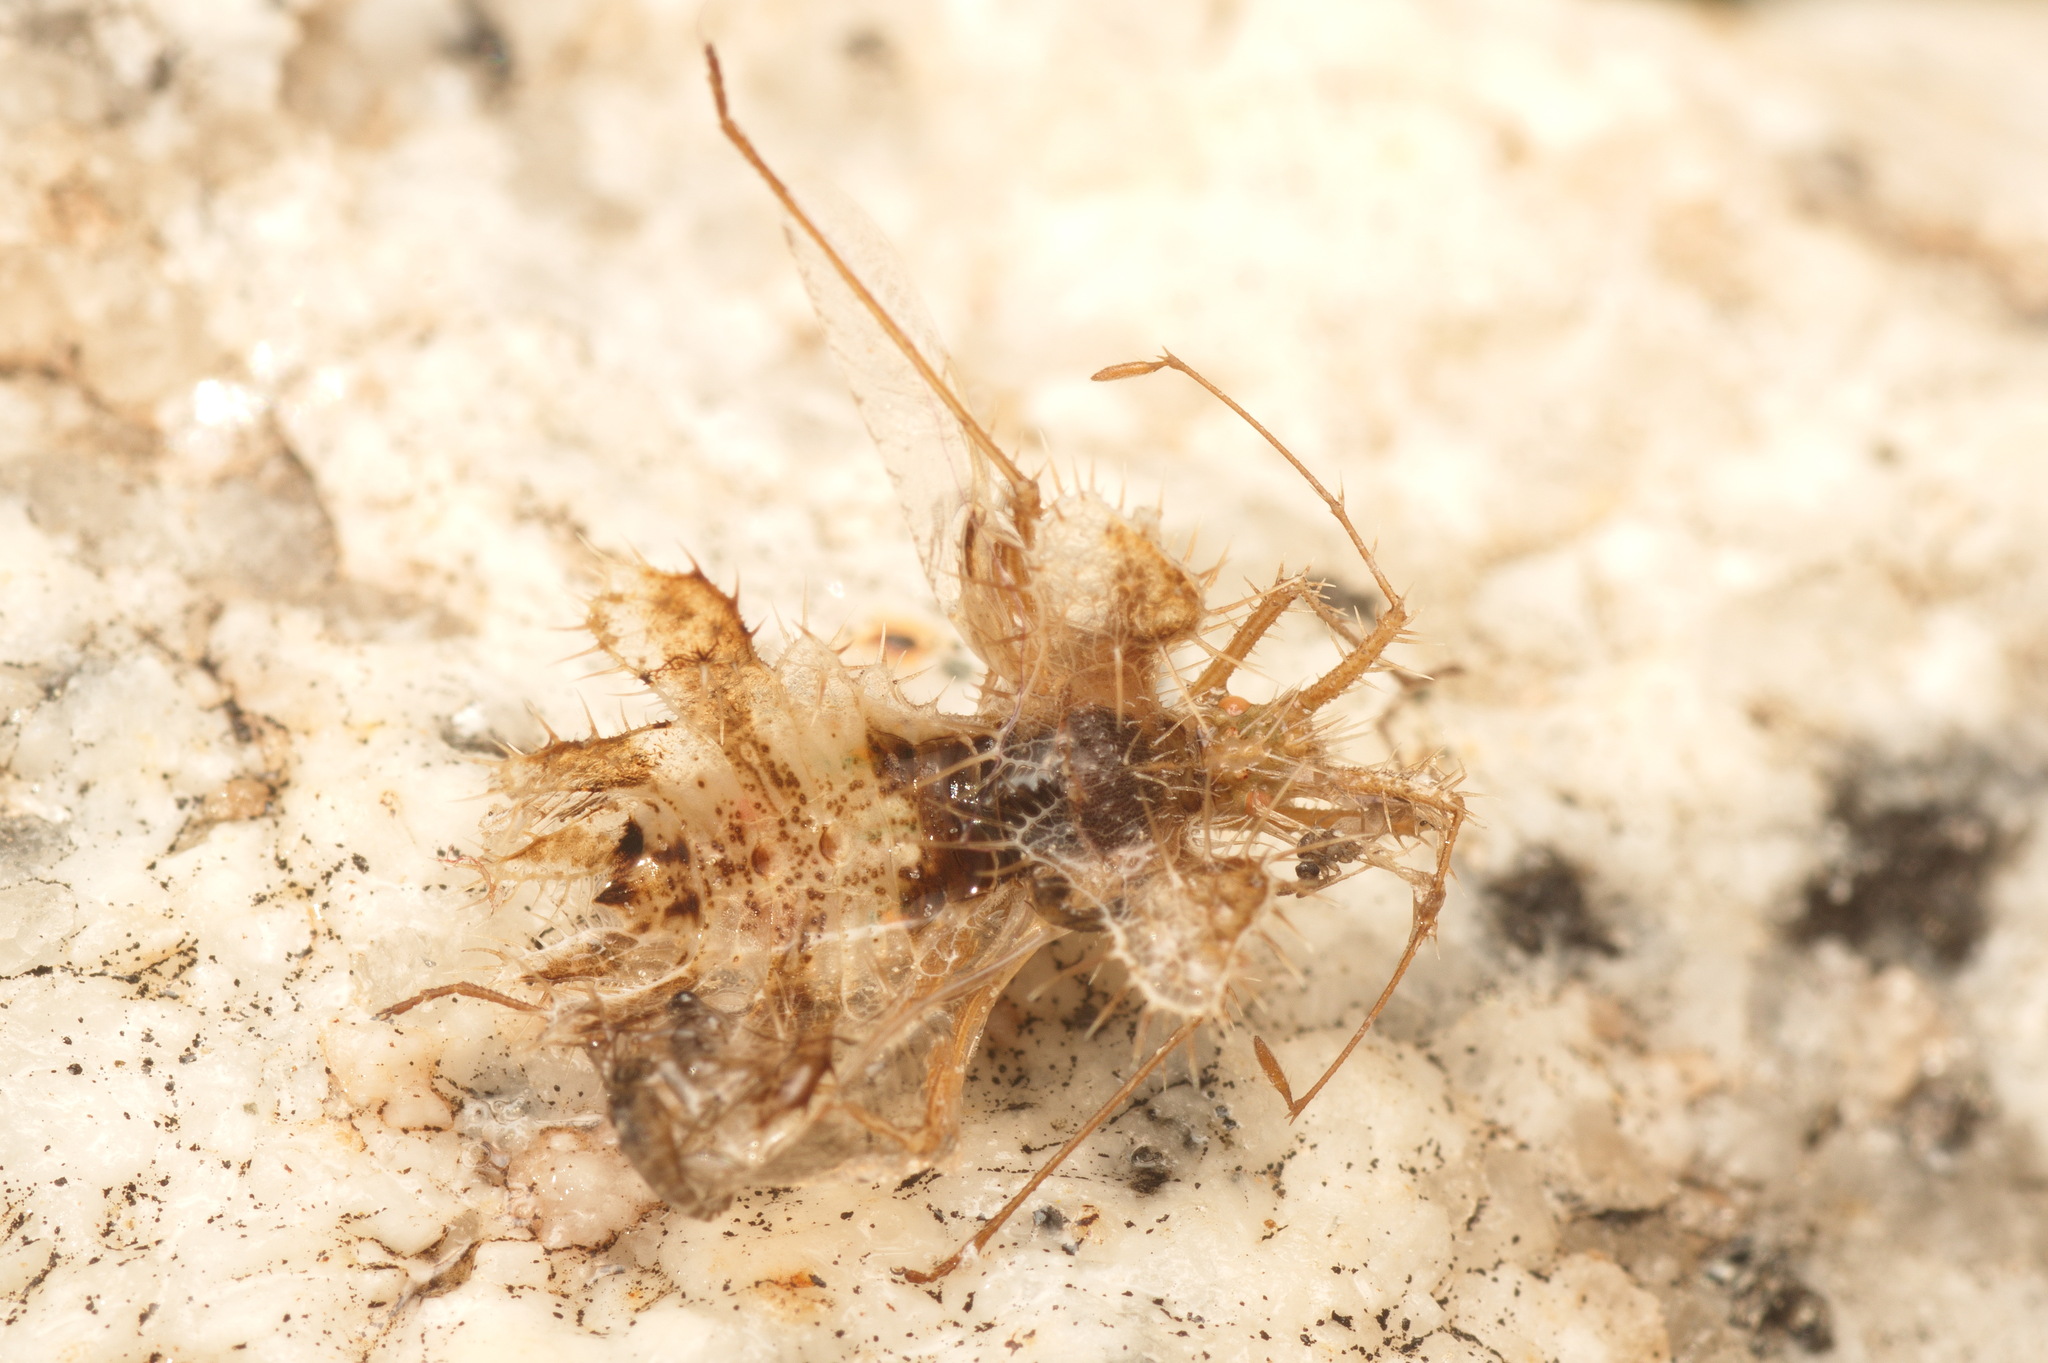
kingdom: Animalia
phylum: Arthropoda
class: Insecta
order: Hemiptera
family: Coreidae
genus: Phyllomorpha
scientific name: Phyllomorpha laciniata
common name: Golden egg bug
